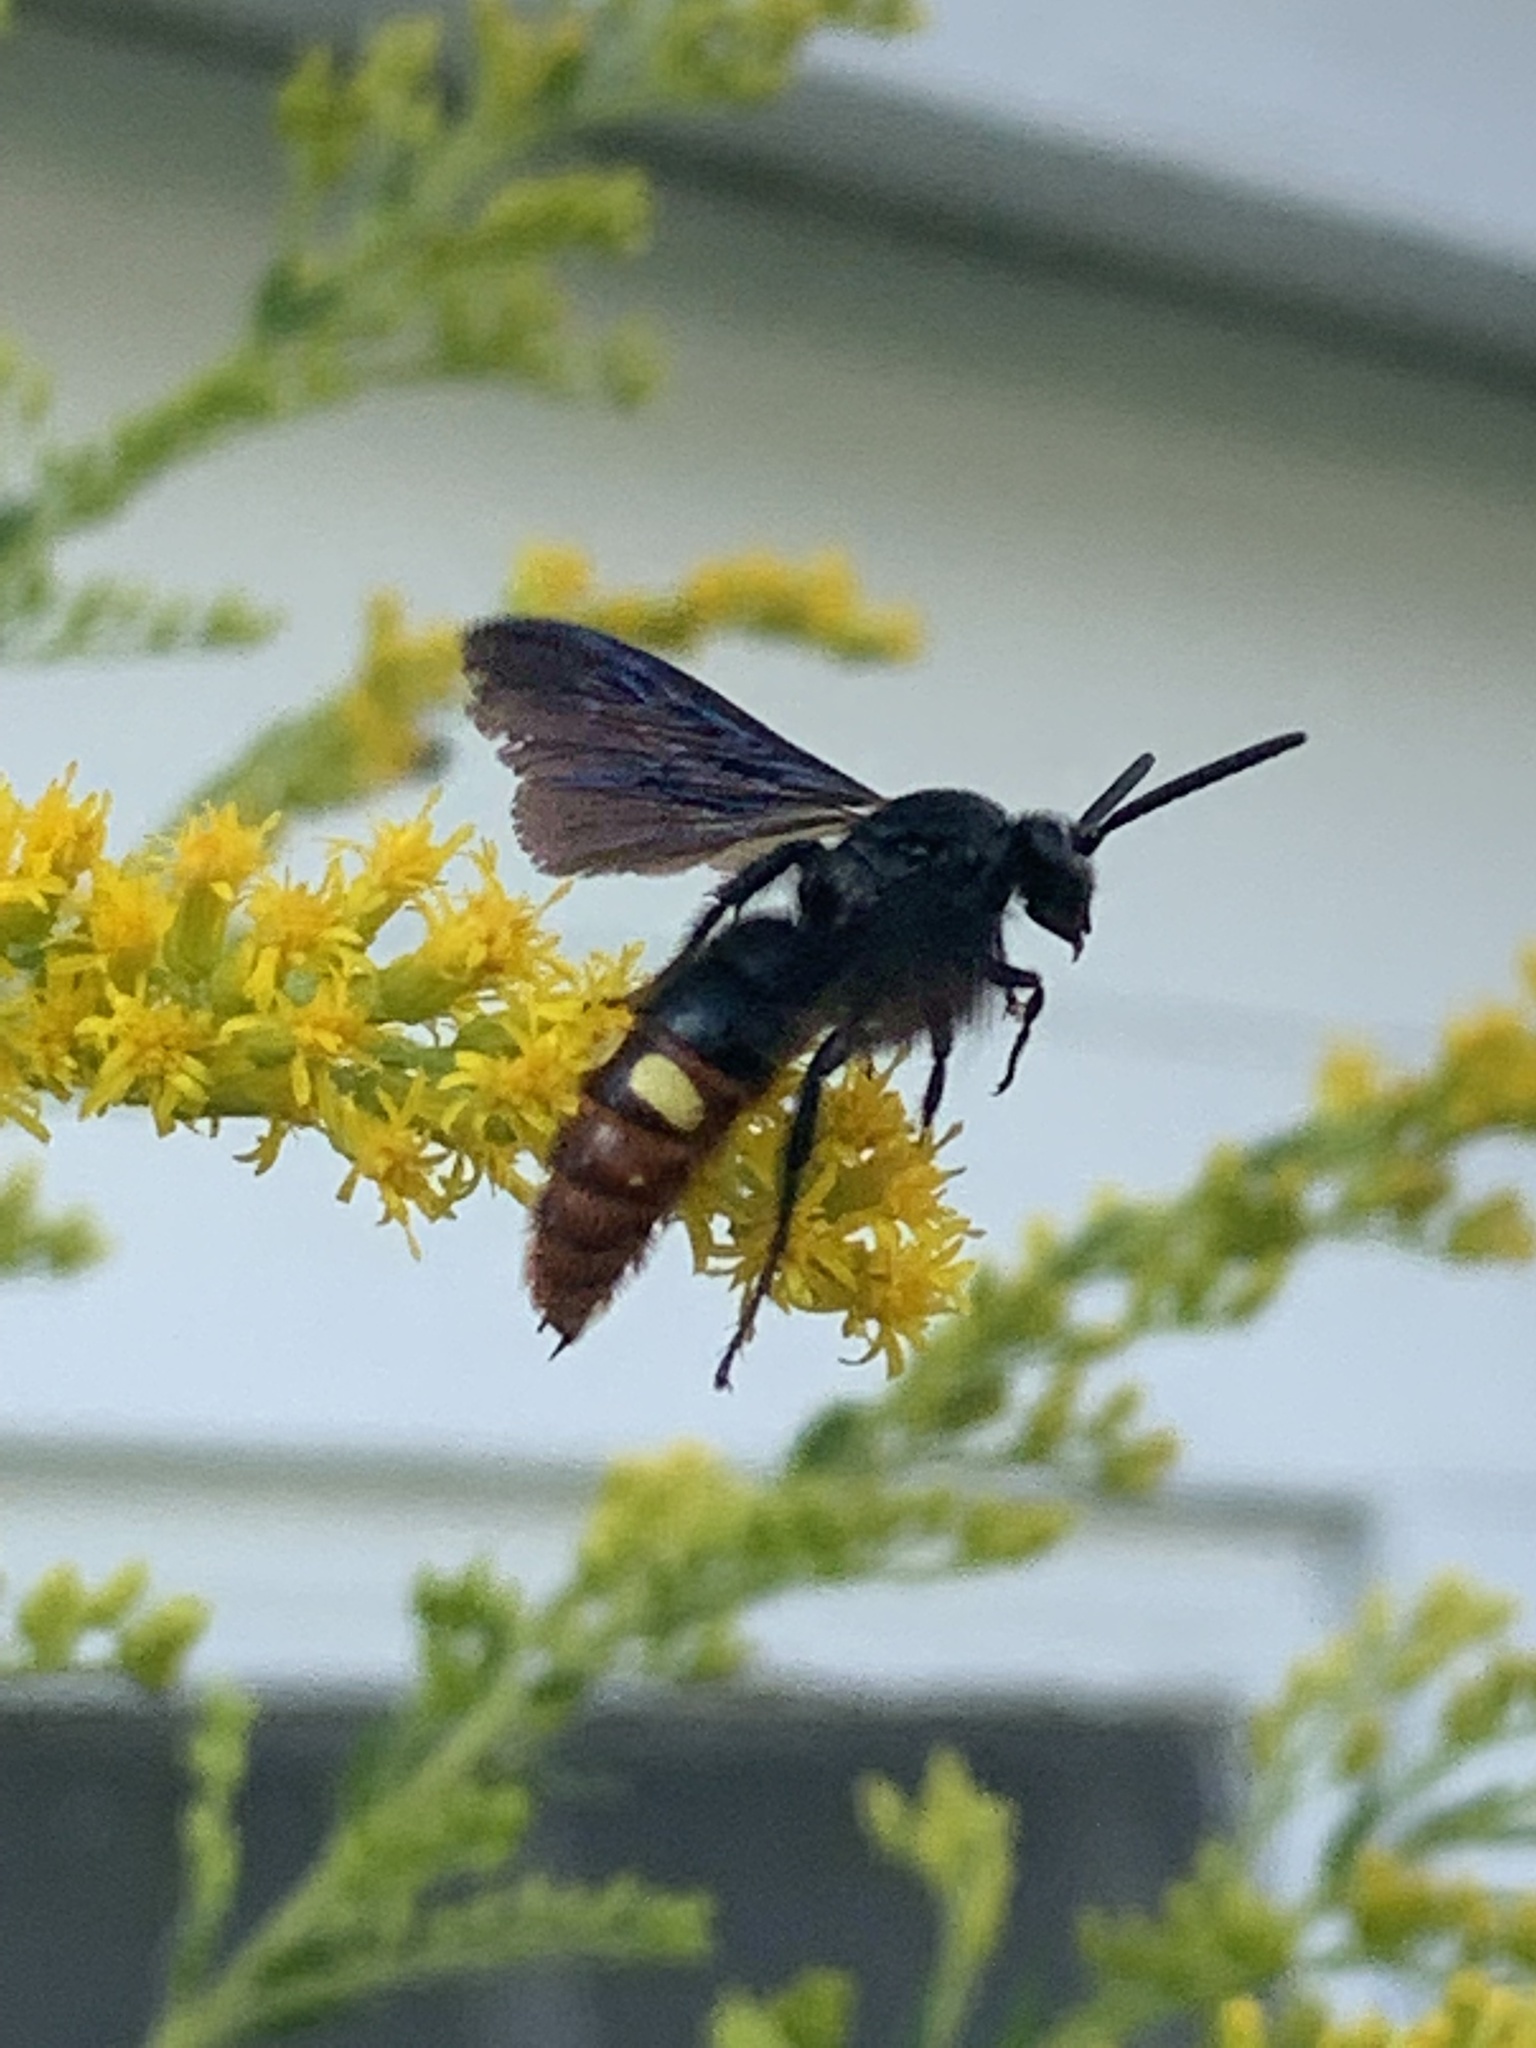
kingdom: Animalia
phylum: Arthropoda
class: Insecta
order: Hymenoptera
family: Scoliidae
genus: Scolia
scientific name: Scolia dubia
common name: Blue-winged scoliid wasp
